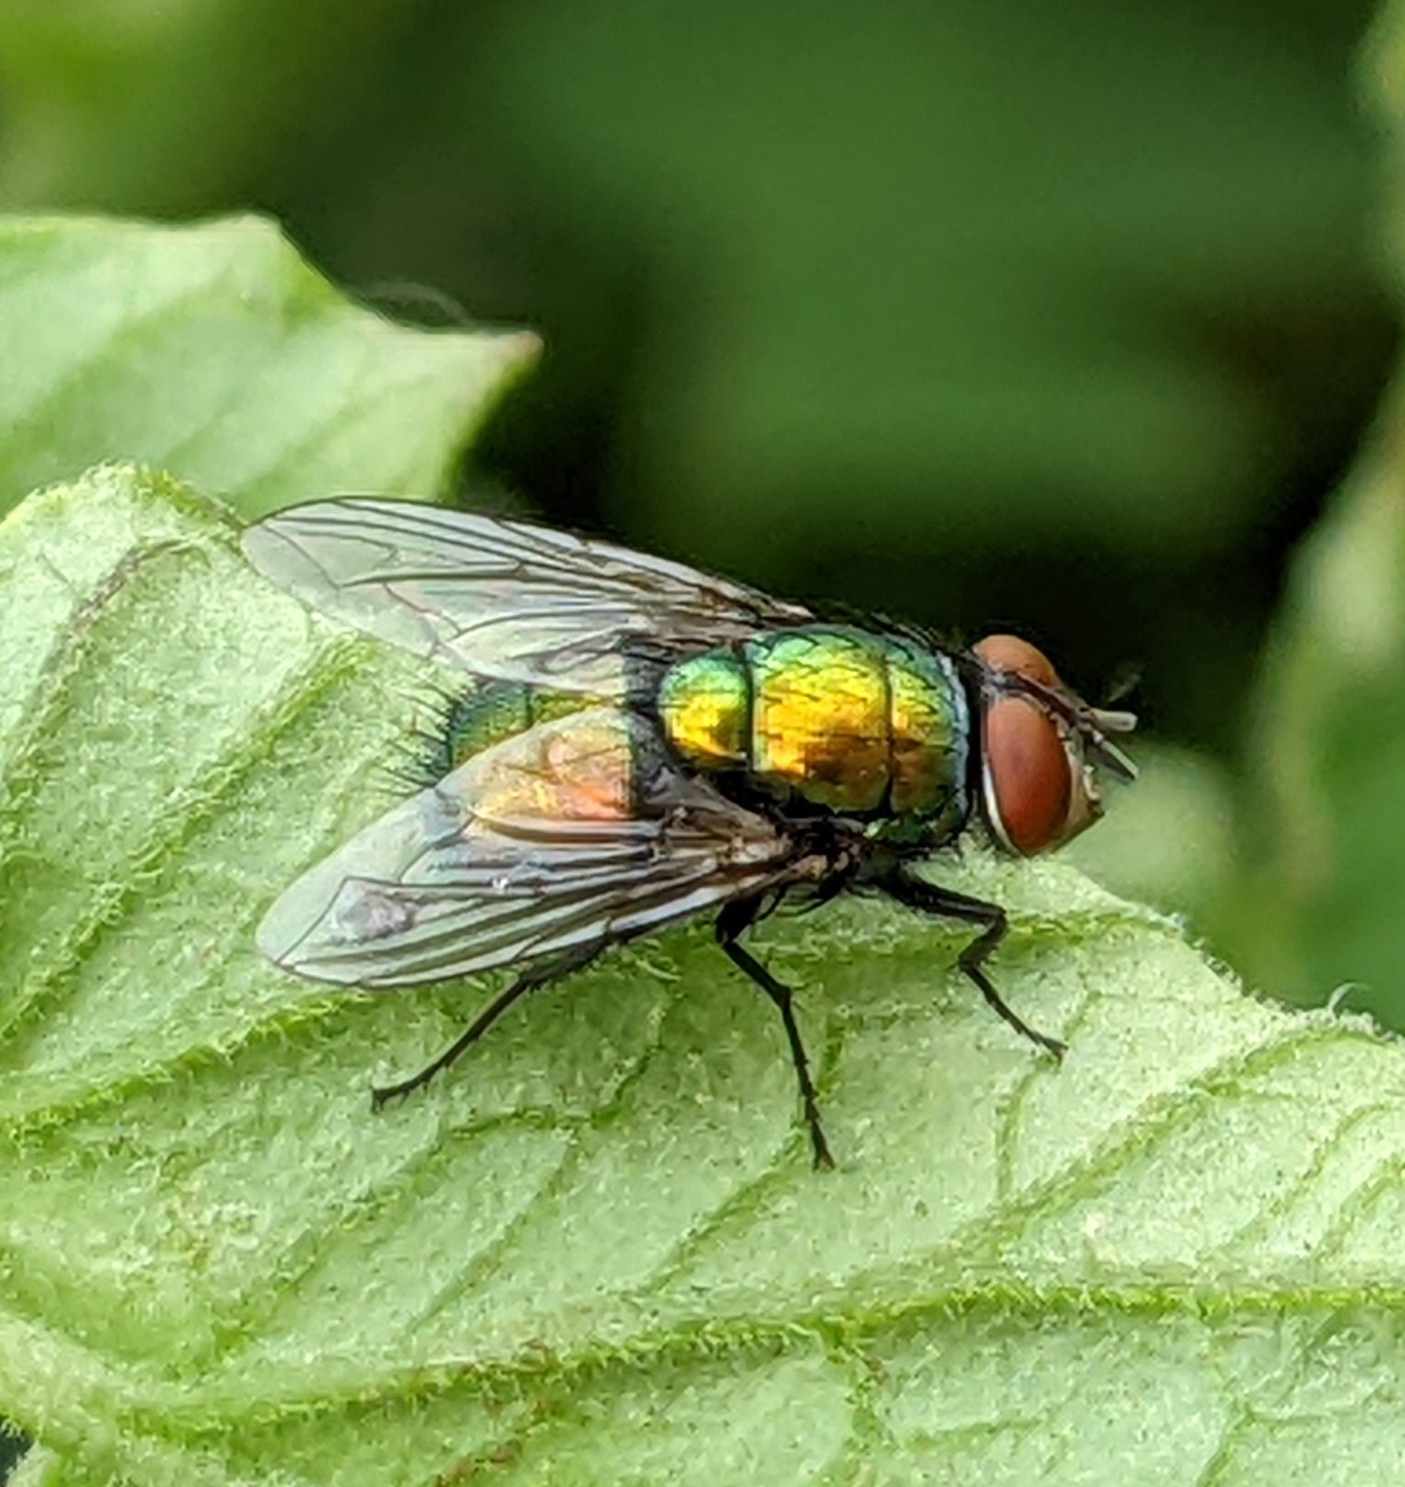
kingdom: Animalia
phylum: Arthropoda
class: Insecta
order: Diptera
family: Calliphoridae
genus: Lucilia
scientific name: Lucilia sericata
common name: Blow fly
